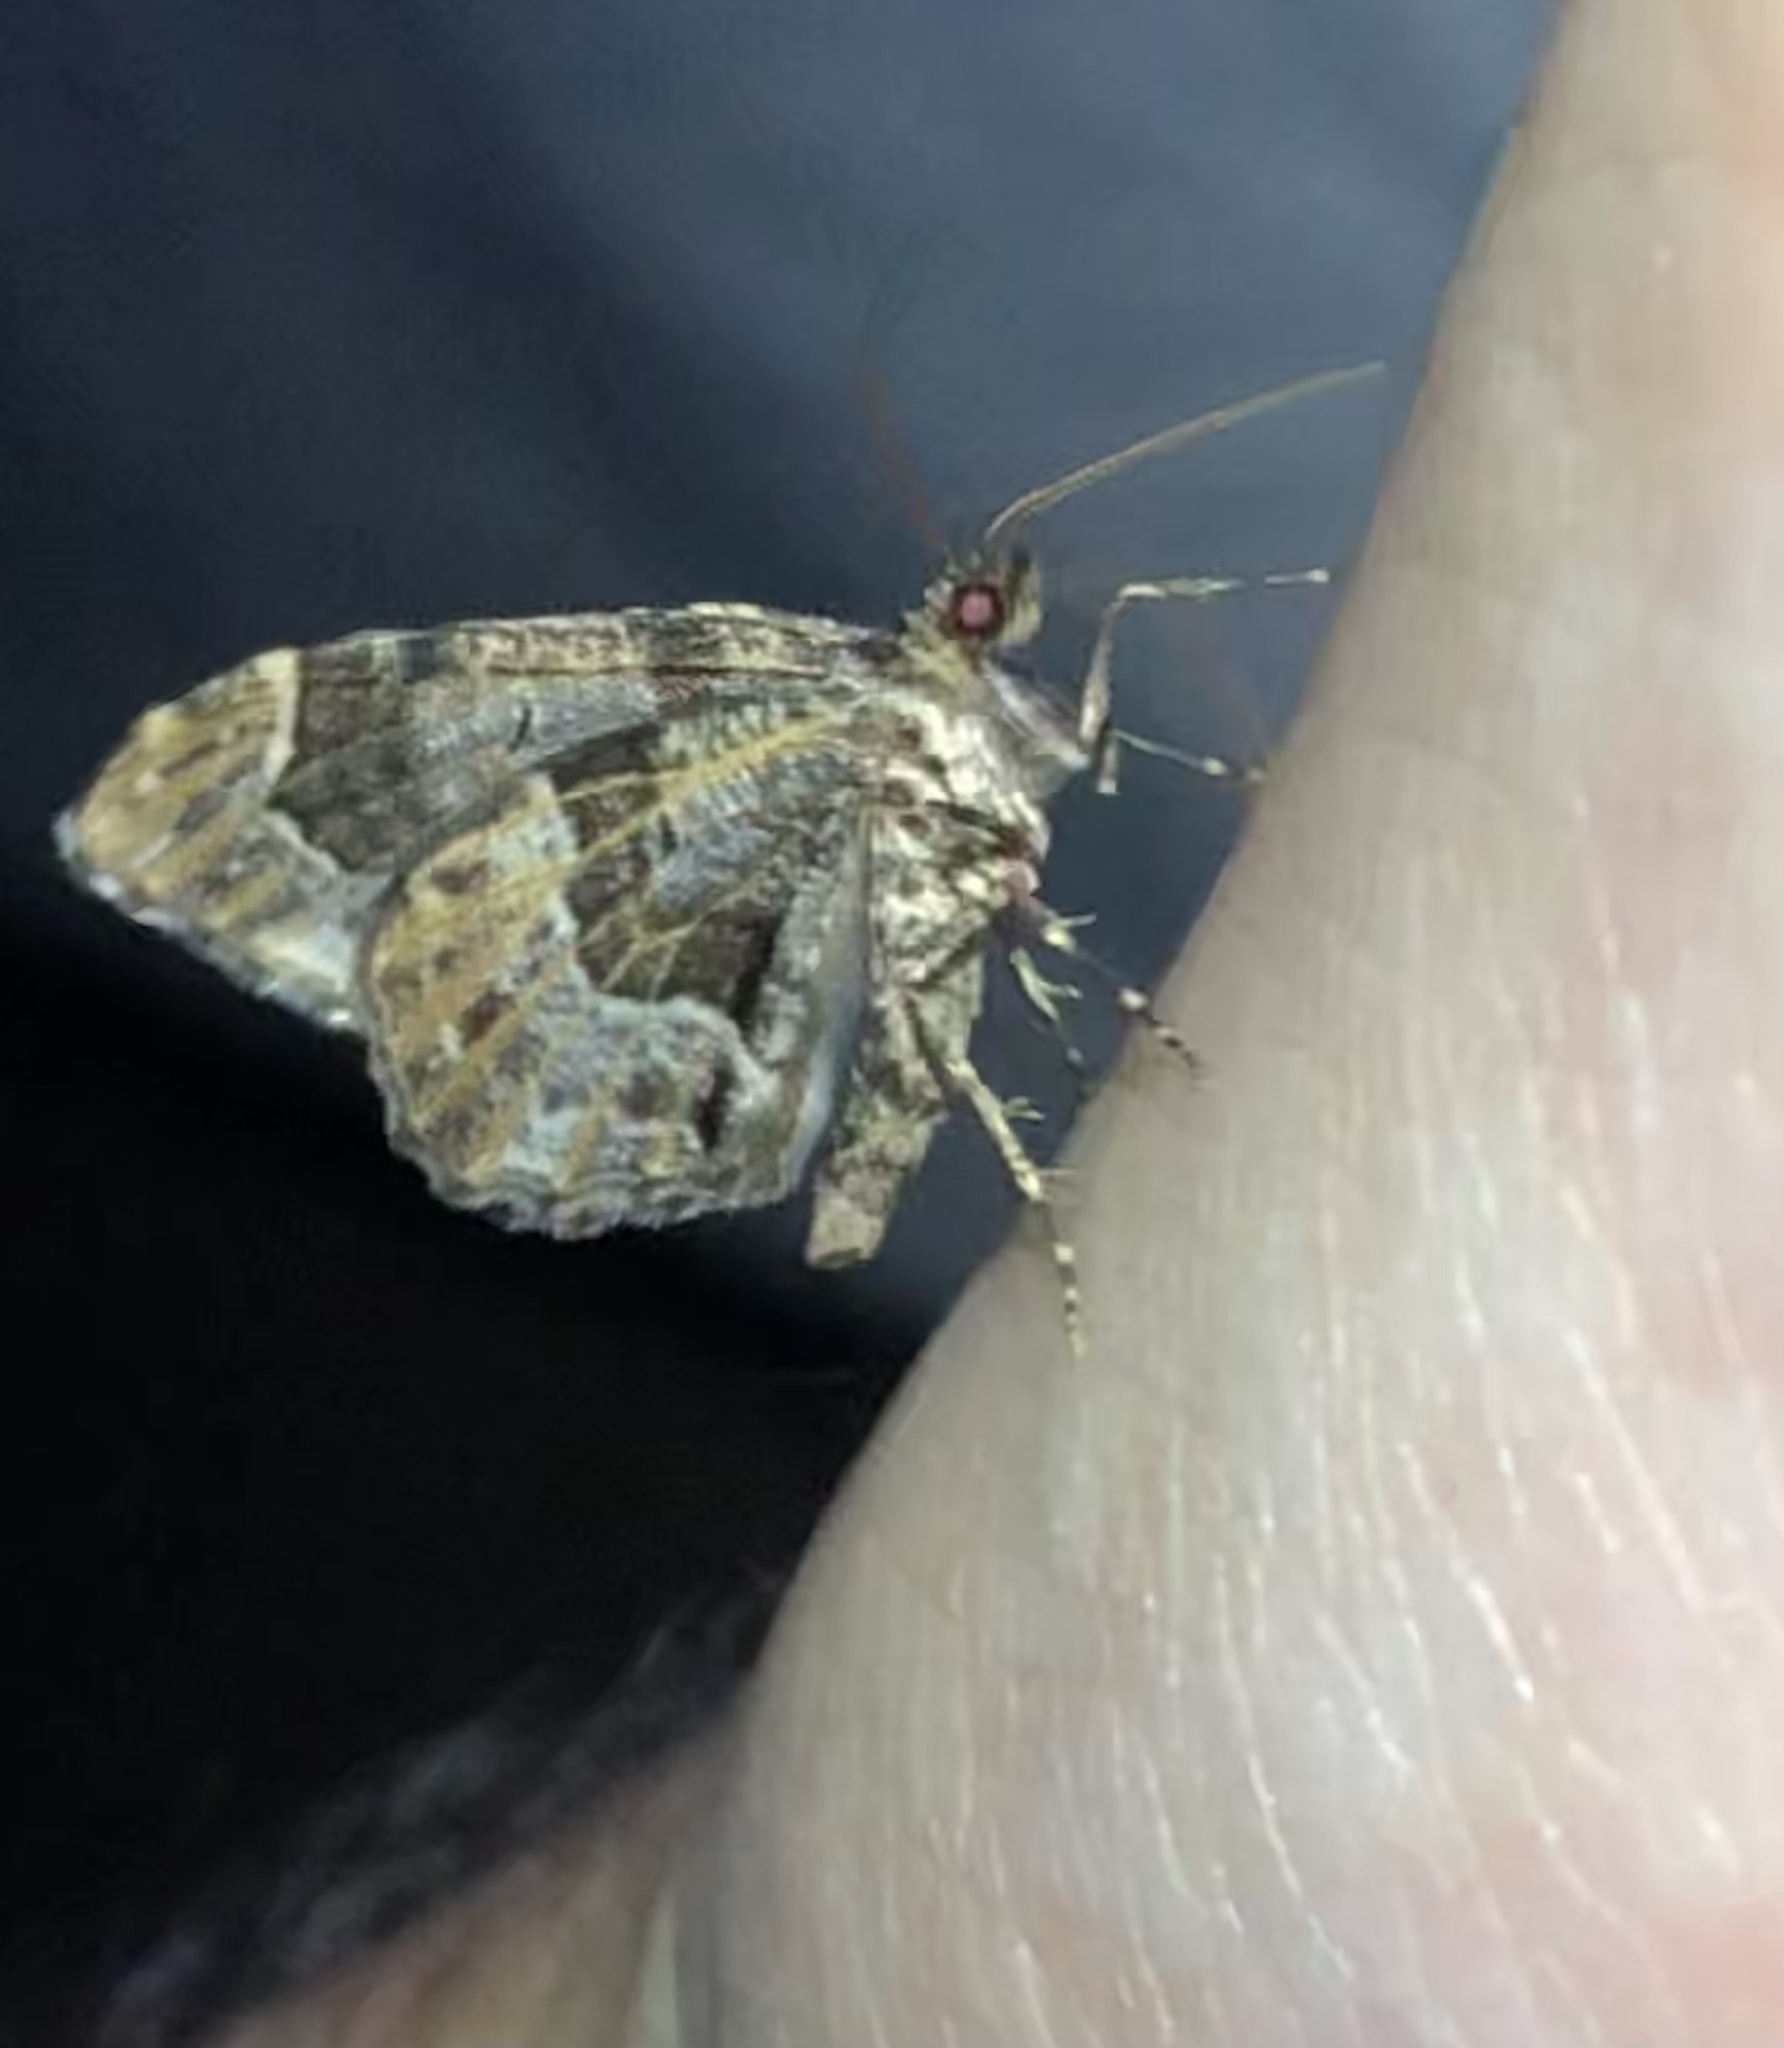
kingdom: Animalia
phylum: Arthropoda
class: Insecta
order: Lepidoptera
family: Geometridae
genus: Ceratodalia
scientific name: Ceratodalia gueneata
